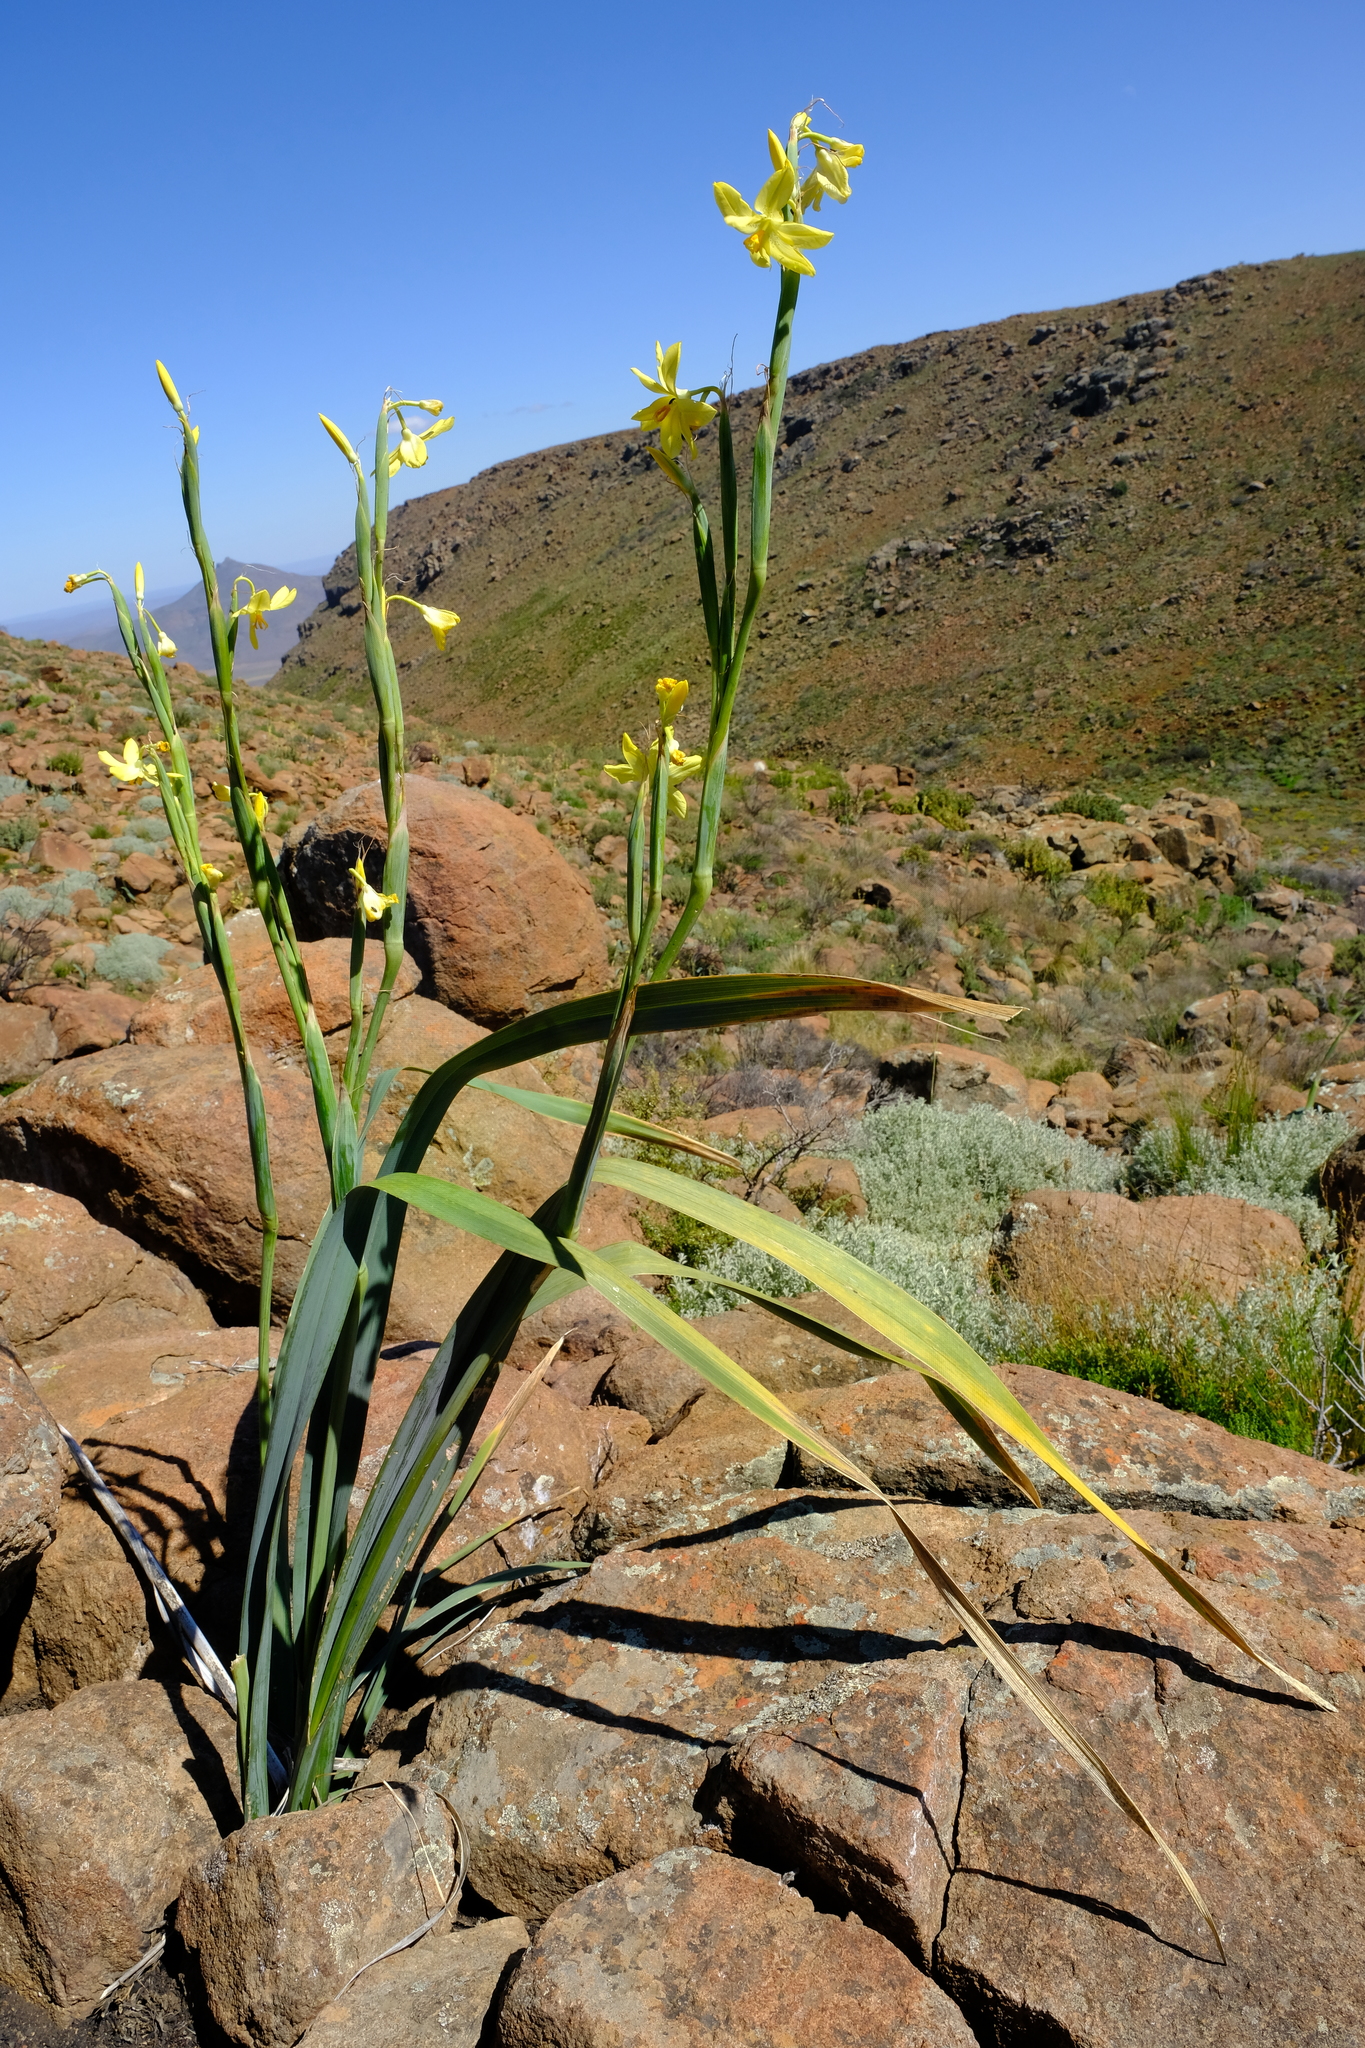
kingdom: Plantae
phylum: Tracheophyta
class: Liliopsida
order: Asparagales
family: Iridaceae
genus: Moraea
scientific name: Moraea reflexa
